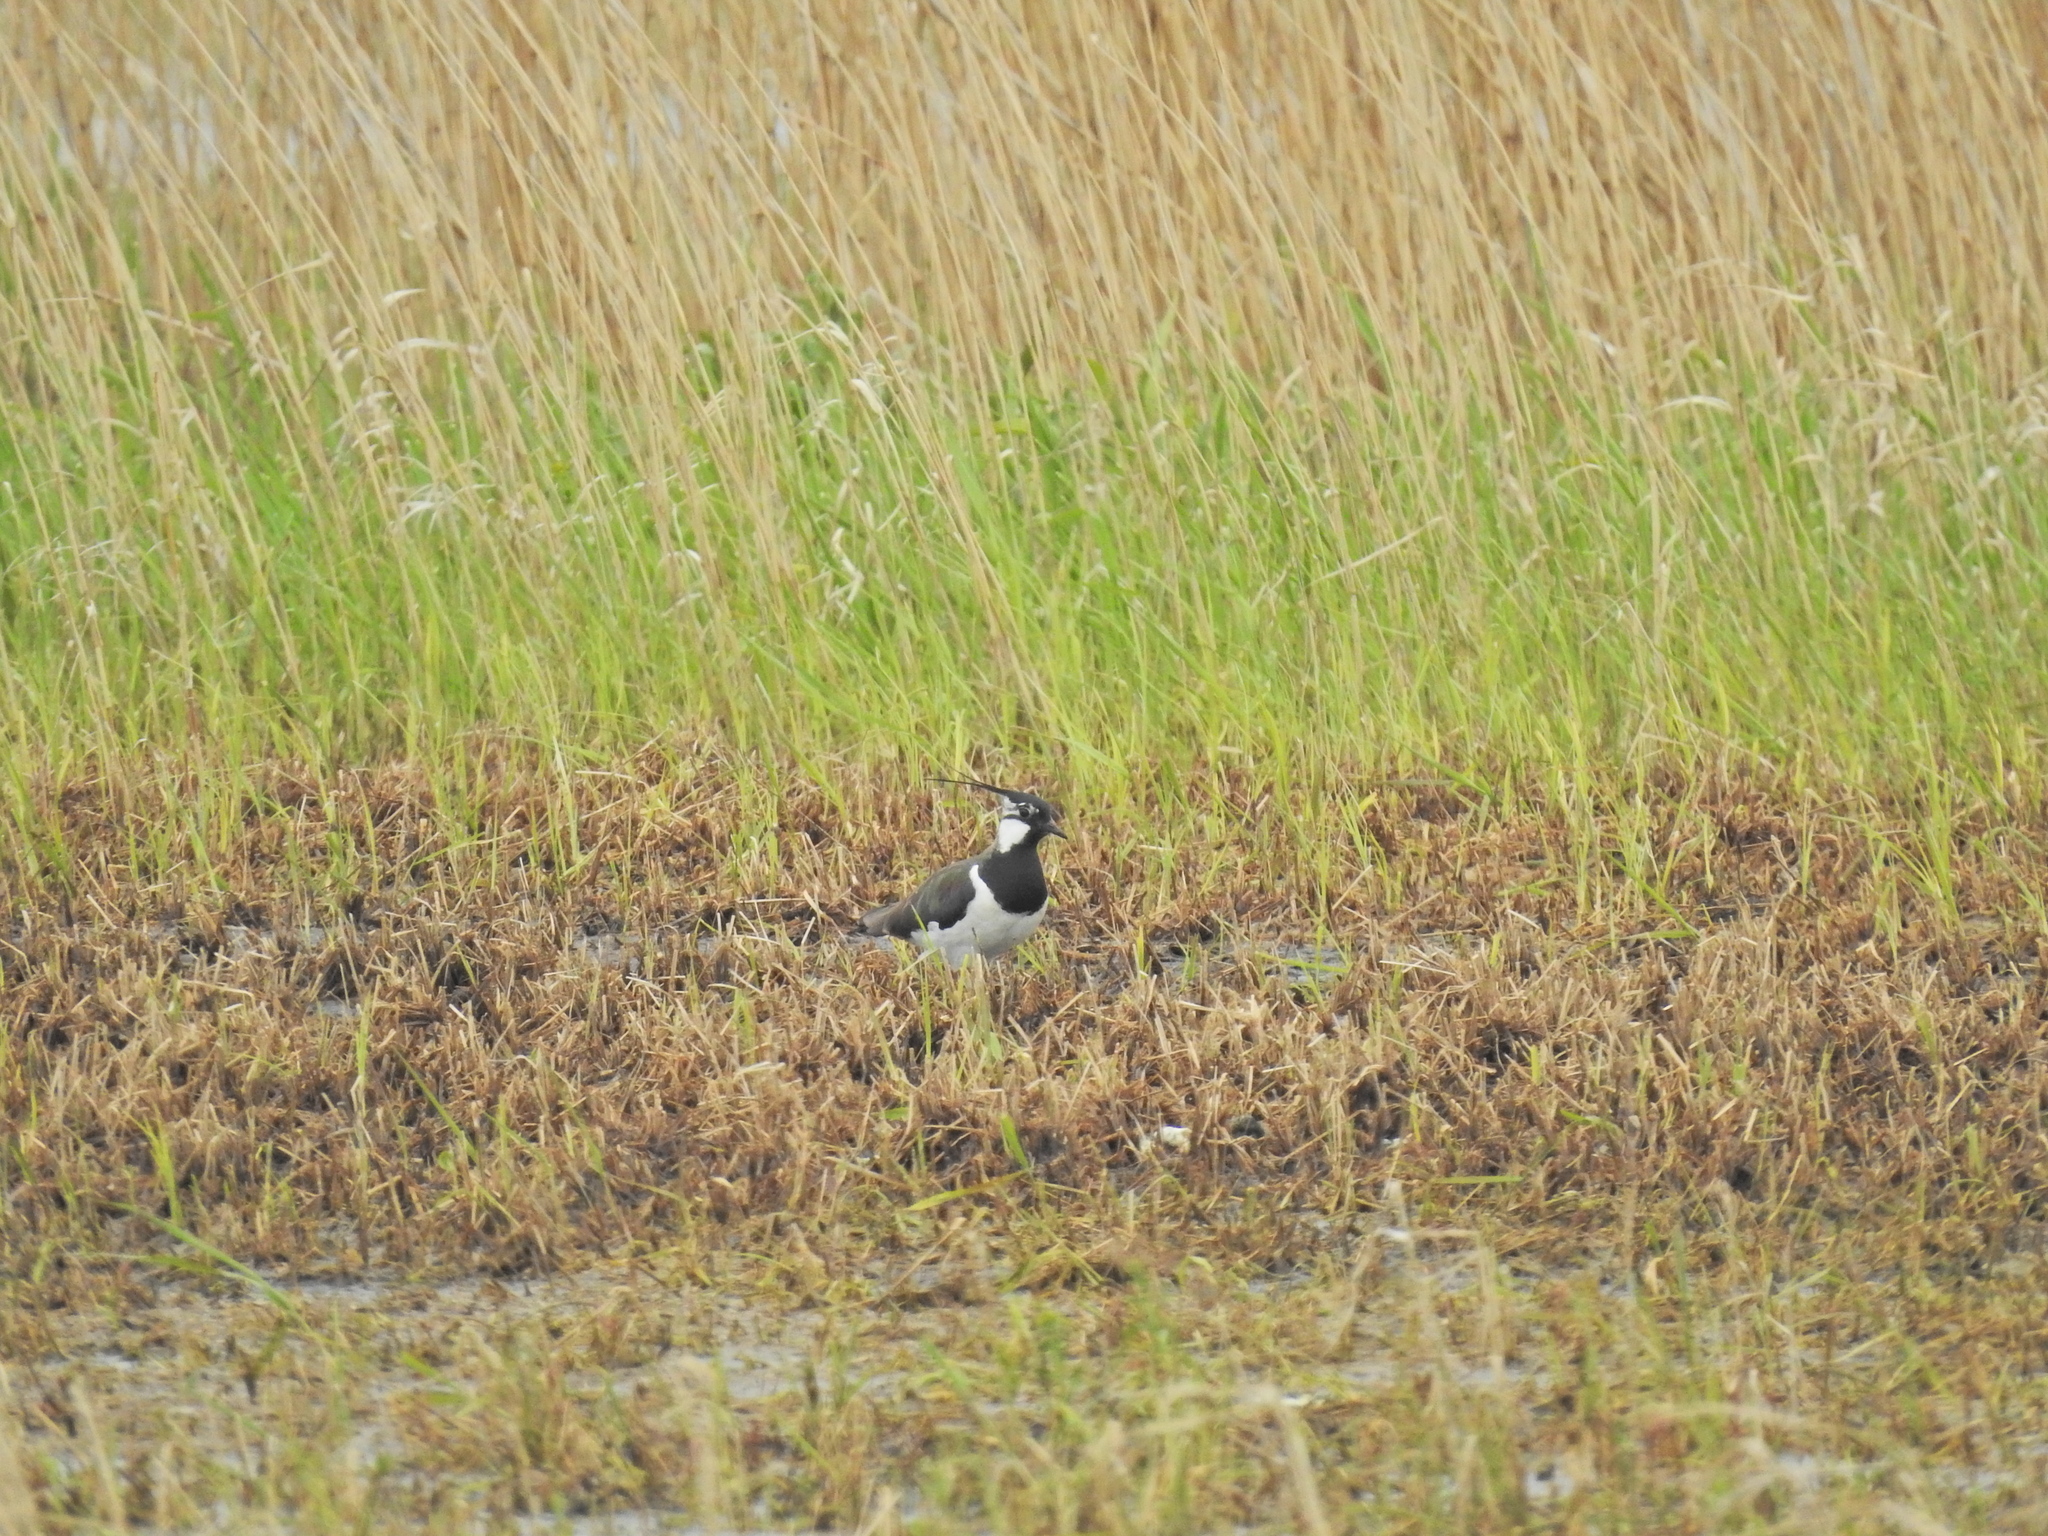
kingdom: Animalia
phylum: Chordata
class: Aves
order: Charadriiformes
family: Charadriidae
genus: Vanellus
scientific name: Vanellus vanellus
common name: Northern lapwing
